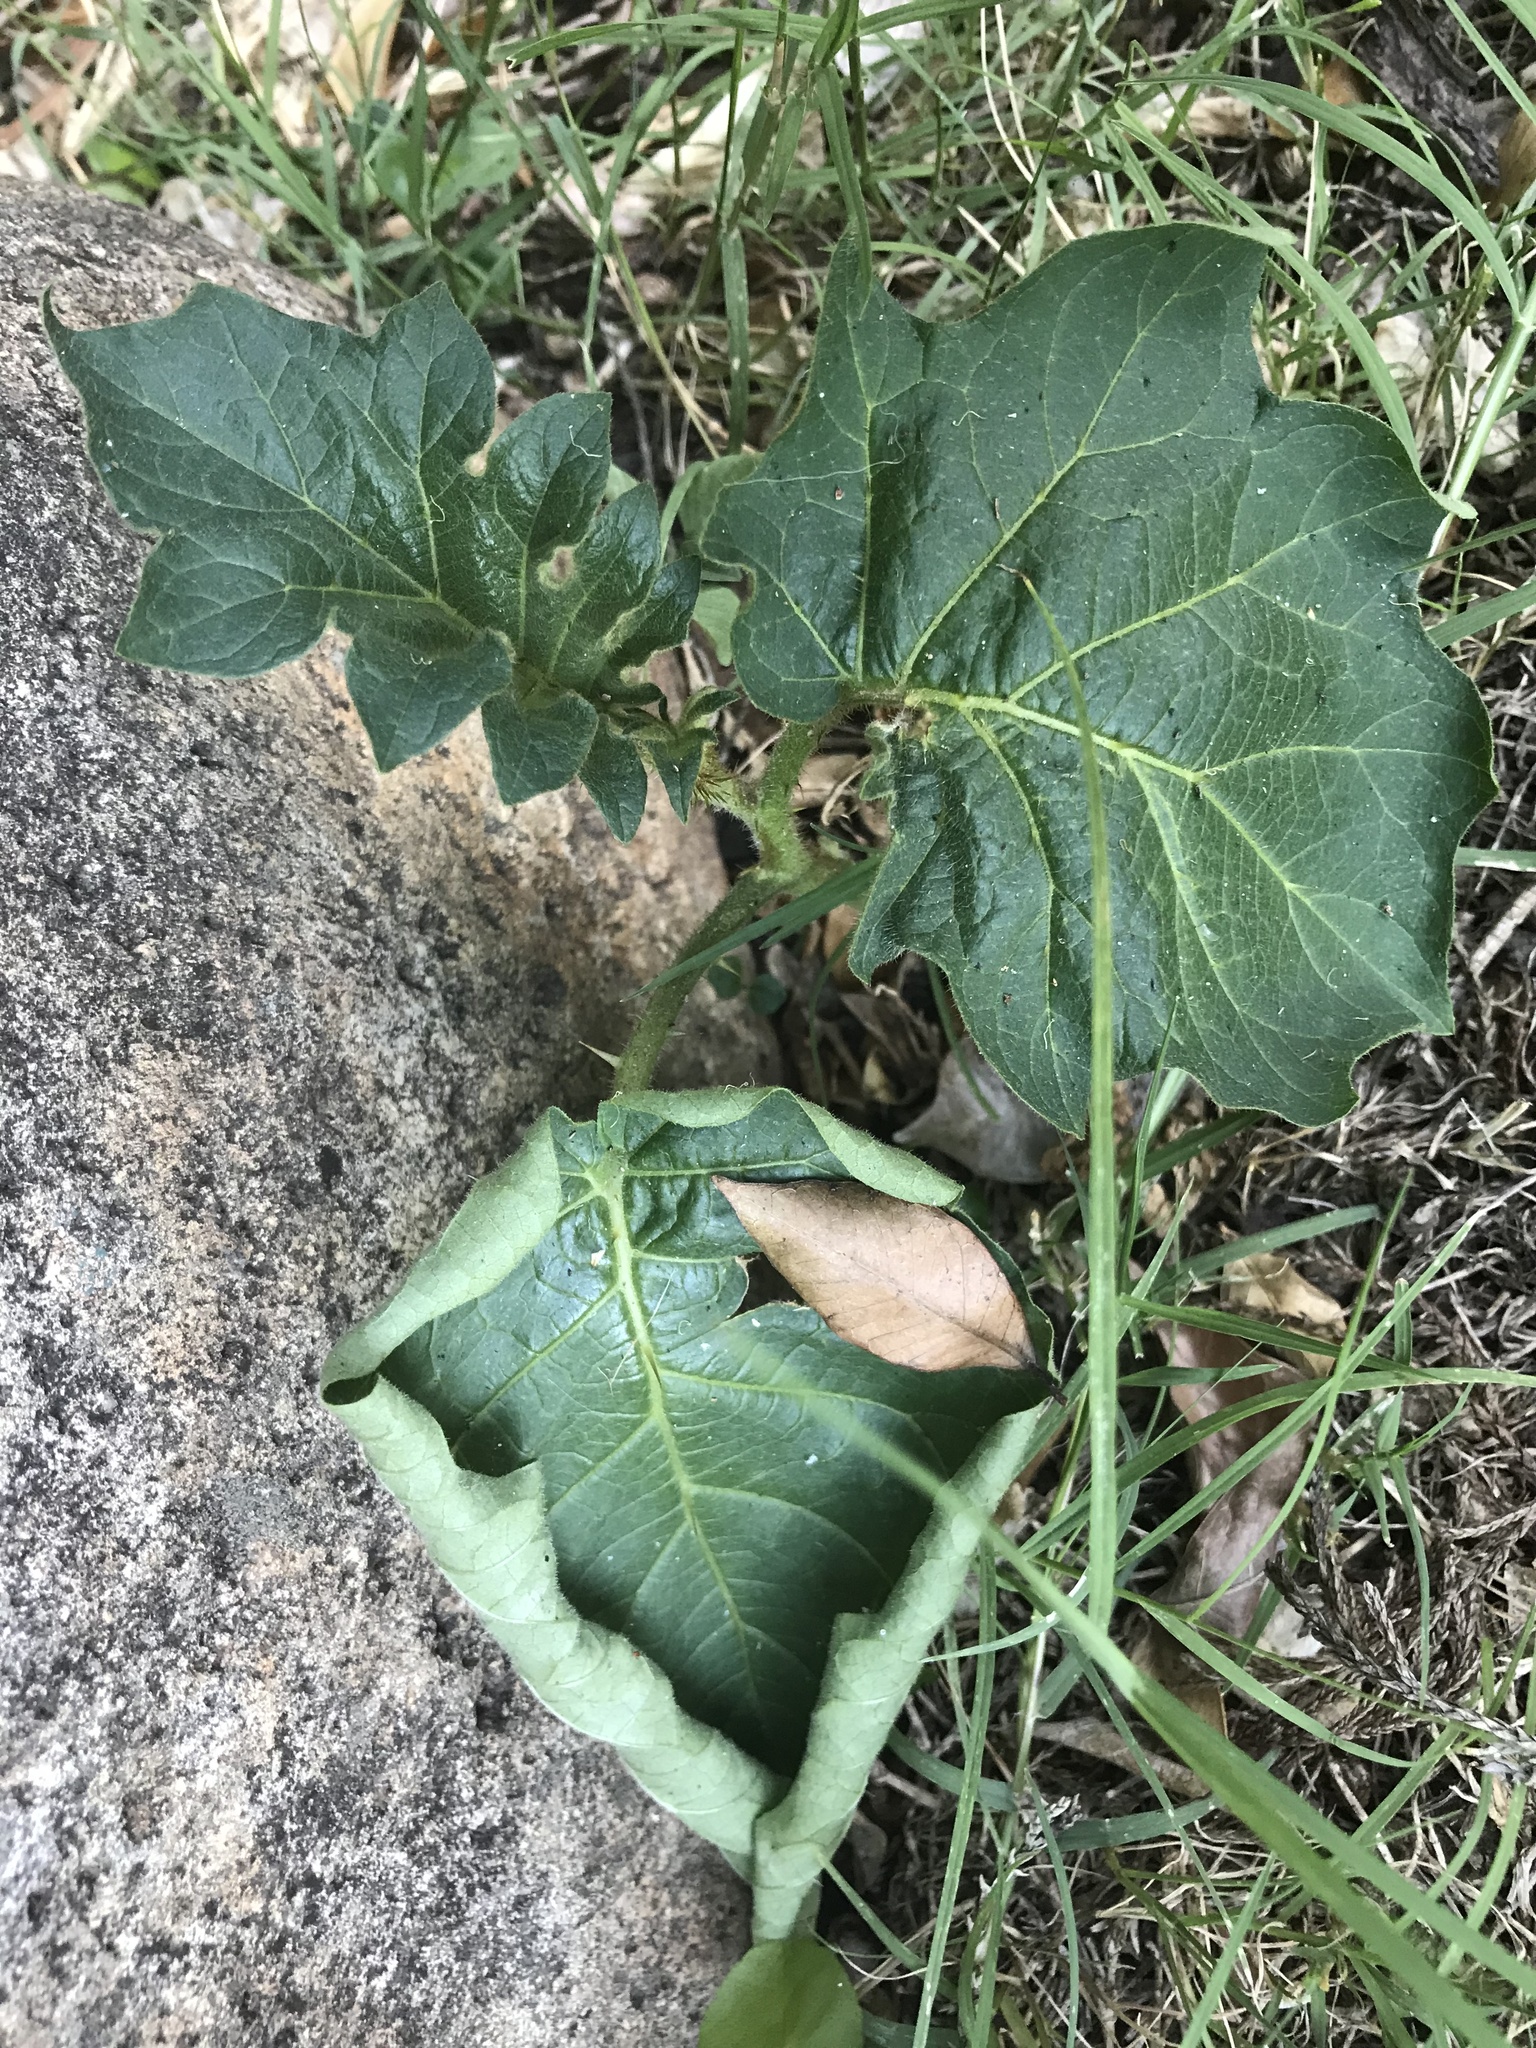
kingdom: Plantae
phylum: Tracheophyta
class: Magnoliopsida
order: Solanales
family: Solanaceae
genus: Solanum
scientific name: Solanum chrysotrichum
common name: Nightshade
